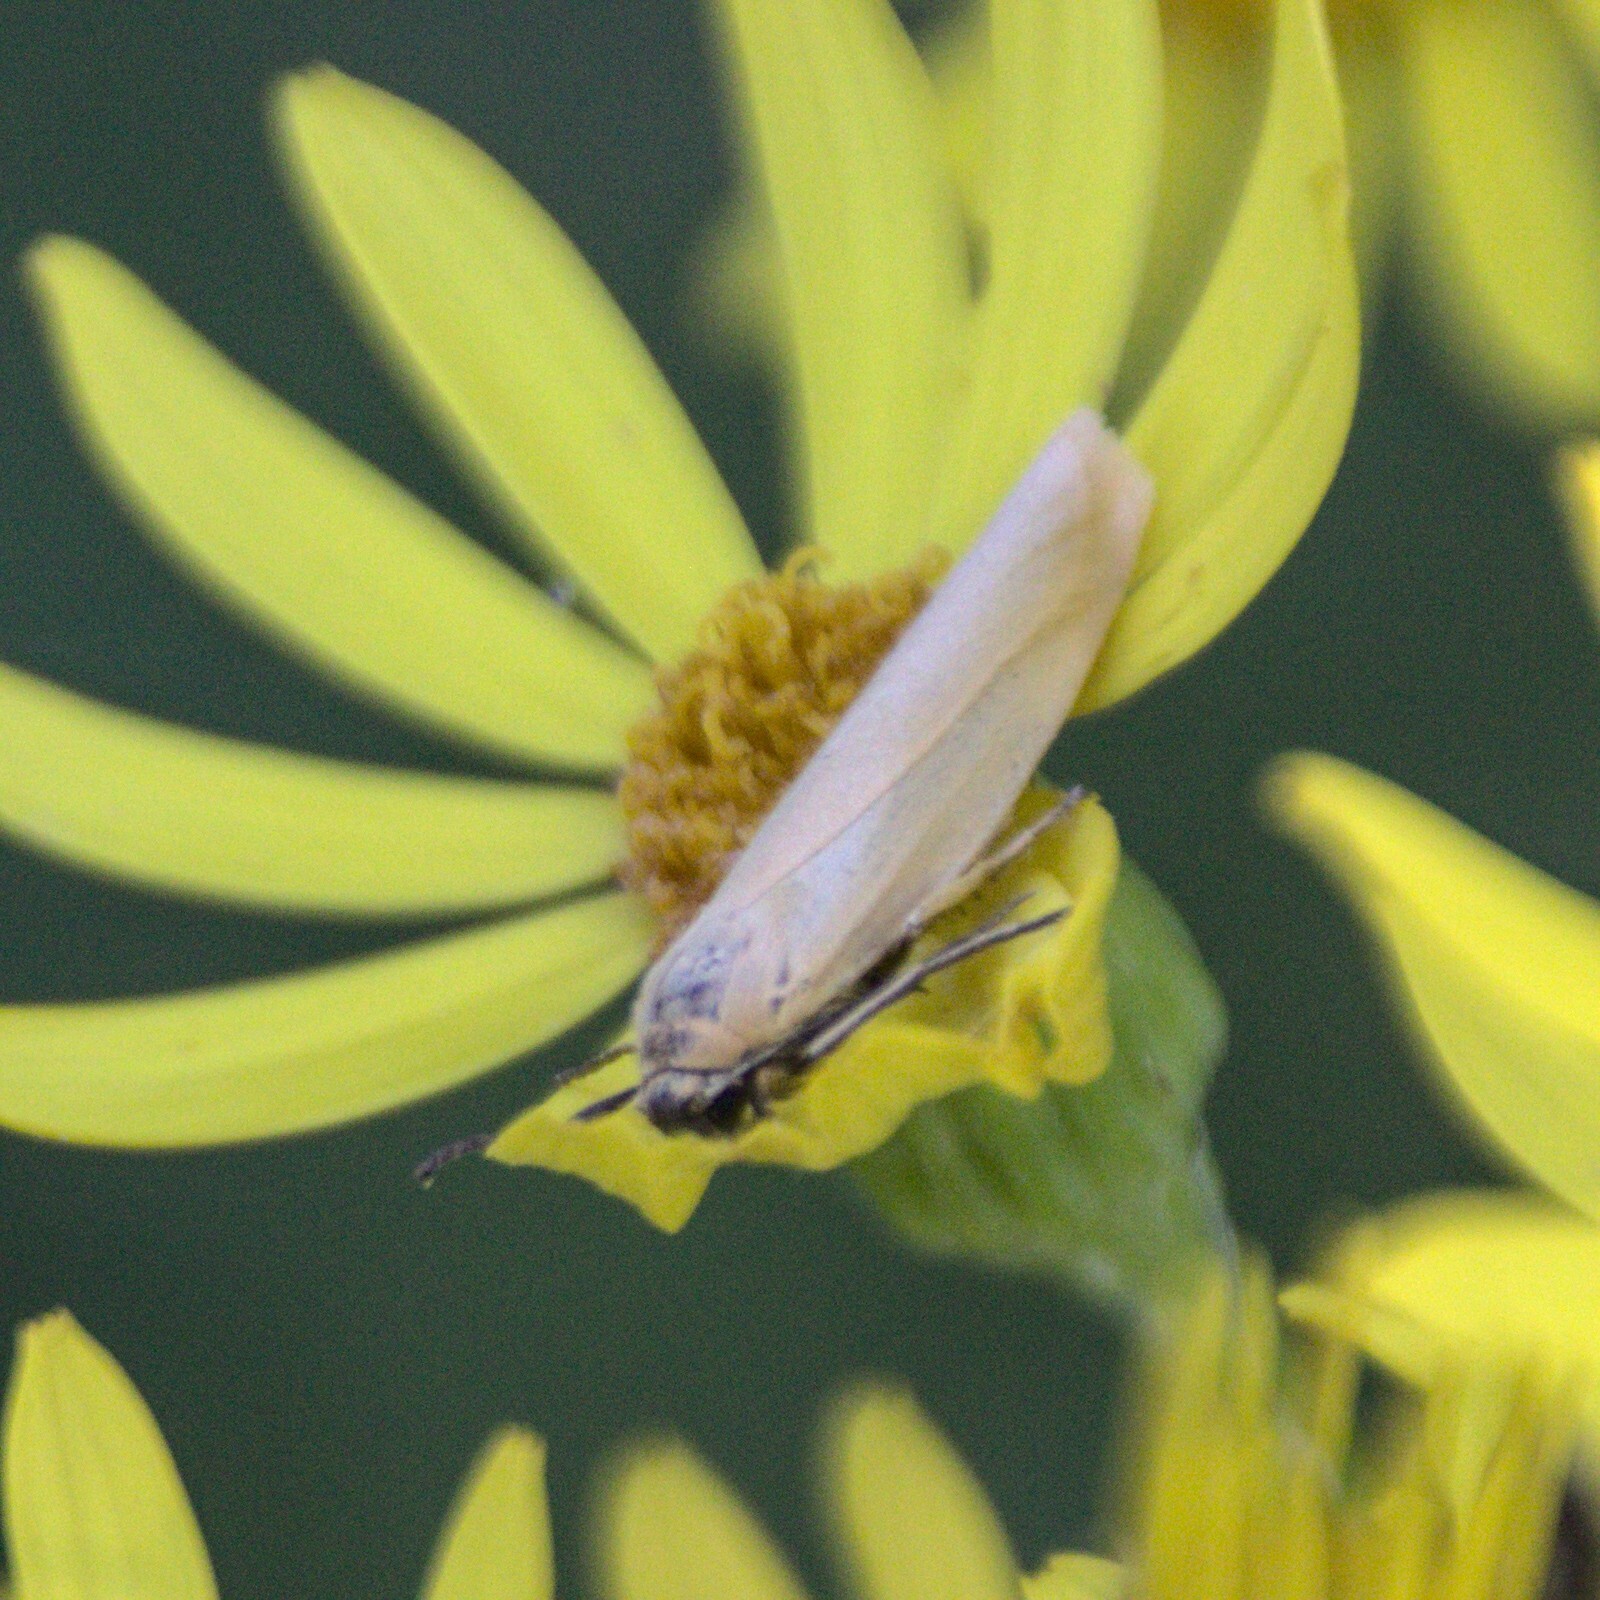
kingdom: Animalia
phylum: Arthropoda
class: Insecta
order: Lepidoptera
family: Erebidae
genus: Indalia
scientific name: Indalia lutarella
